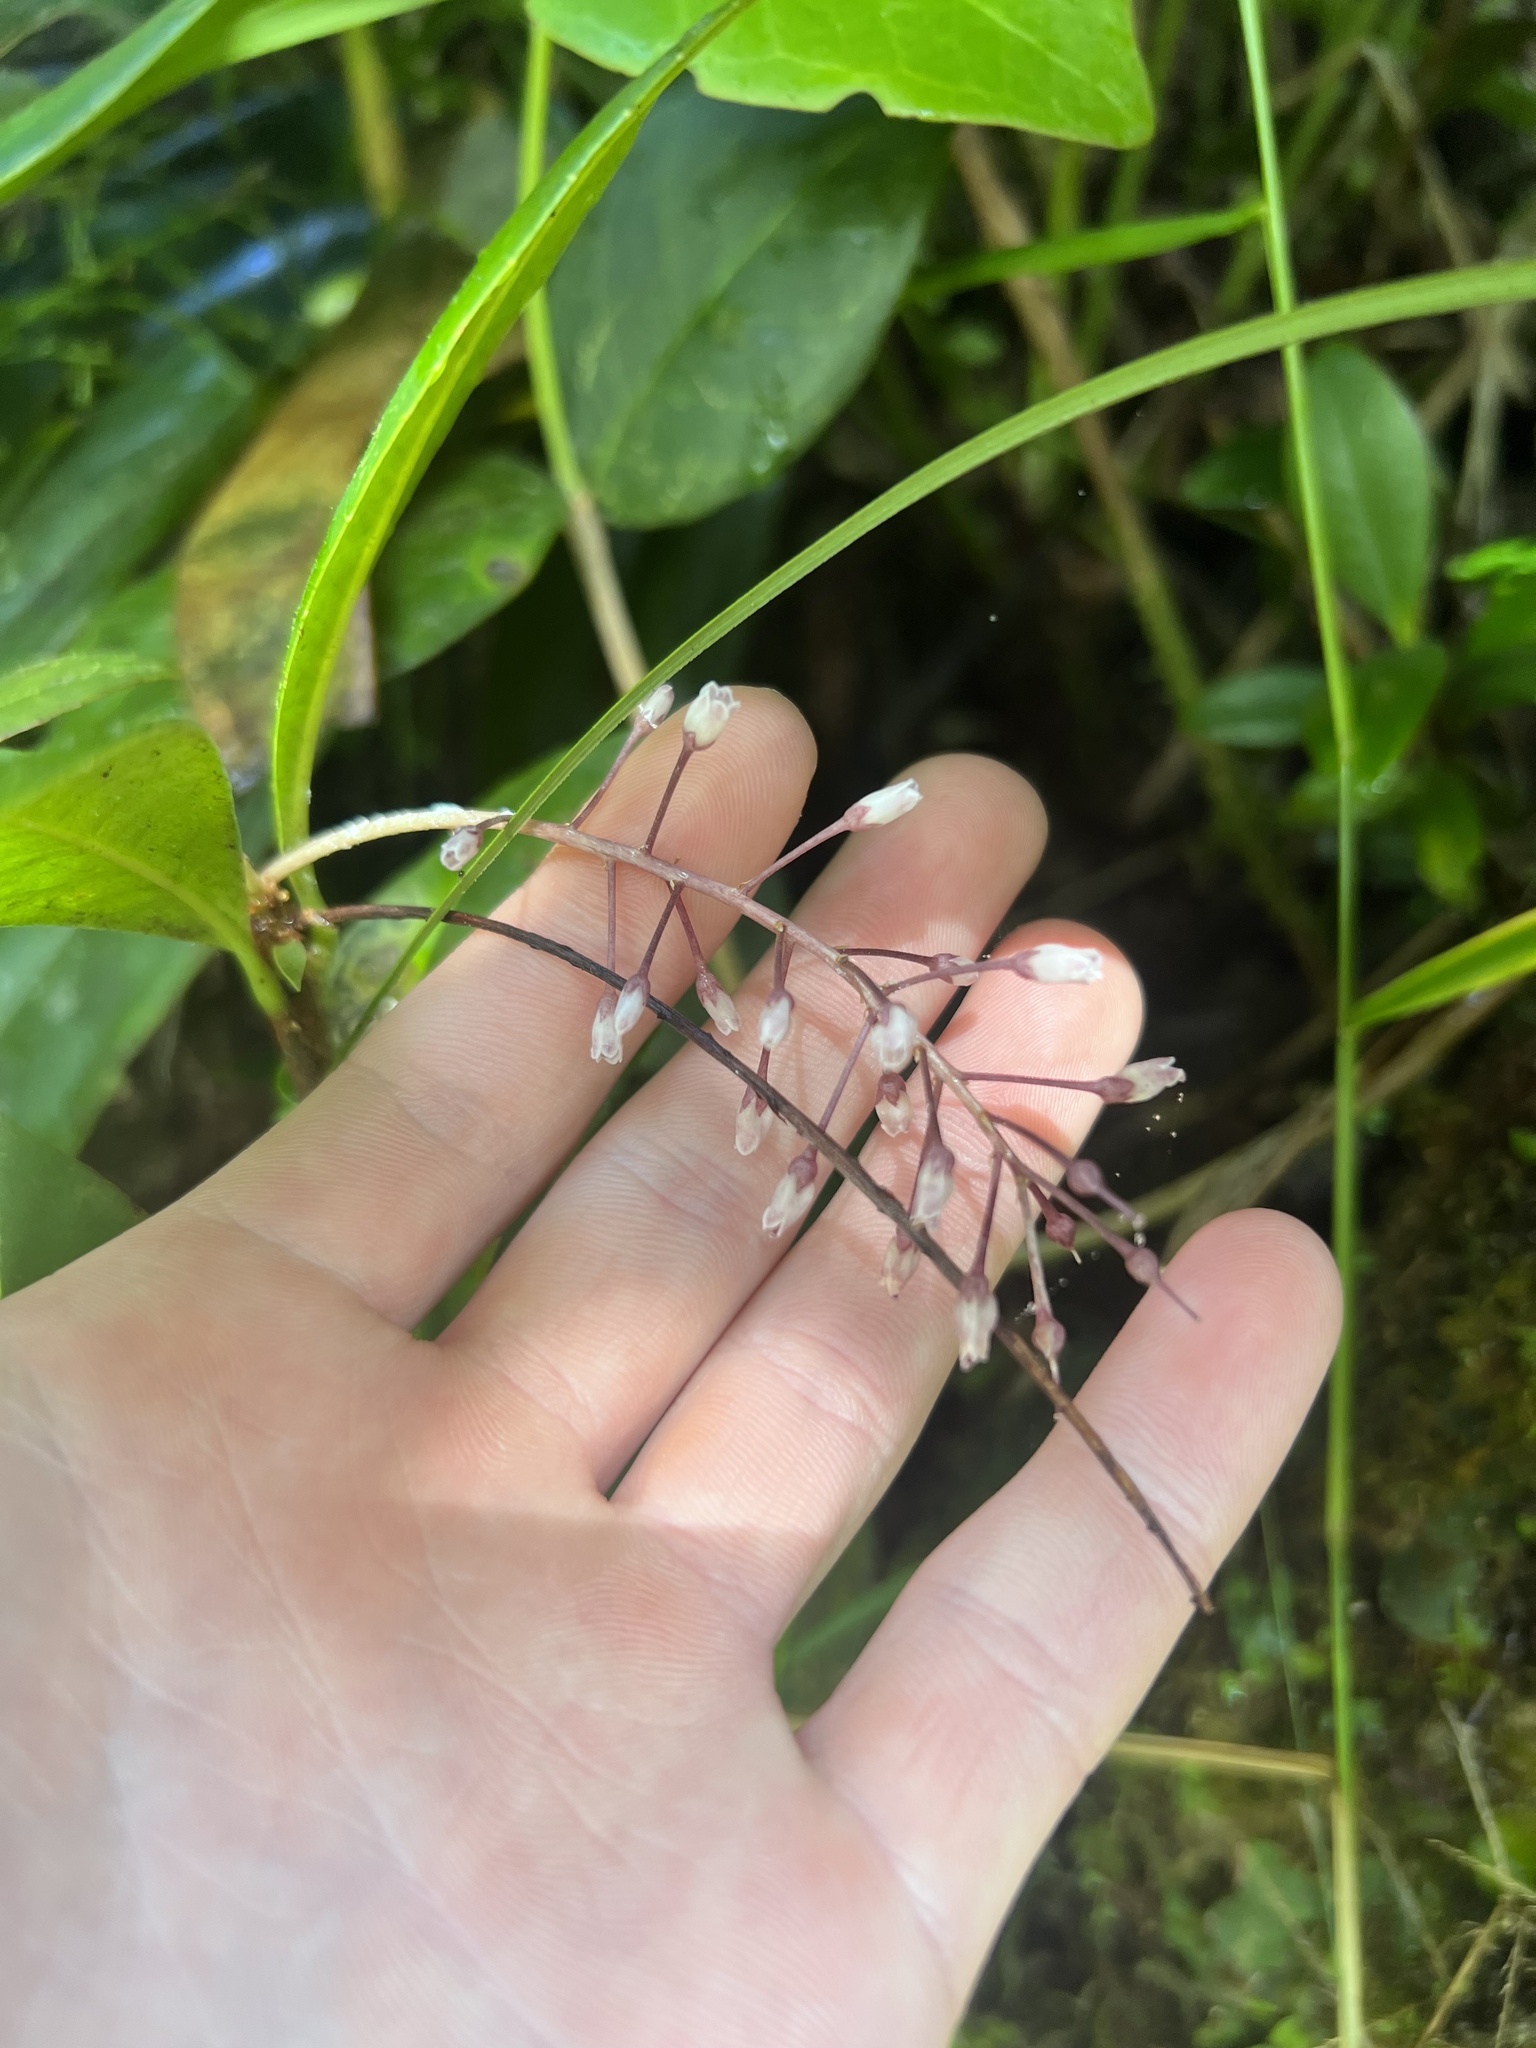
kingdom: Plantae
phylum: Tracheophyta
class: Magnoliopsida
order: Ericales
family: Primulaceae
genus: Wallenia
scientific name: Wallenia yunquensis
